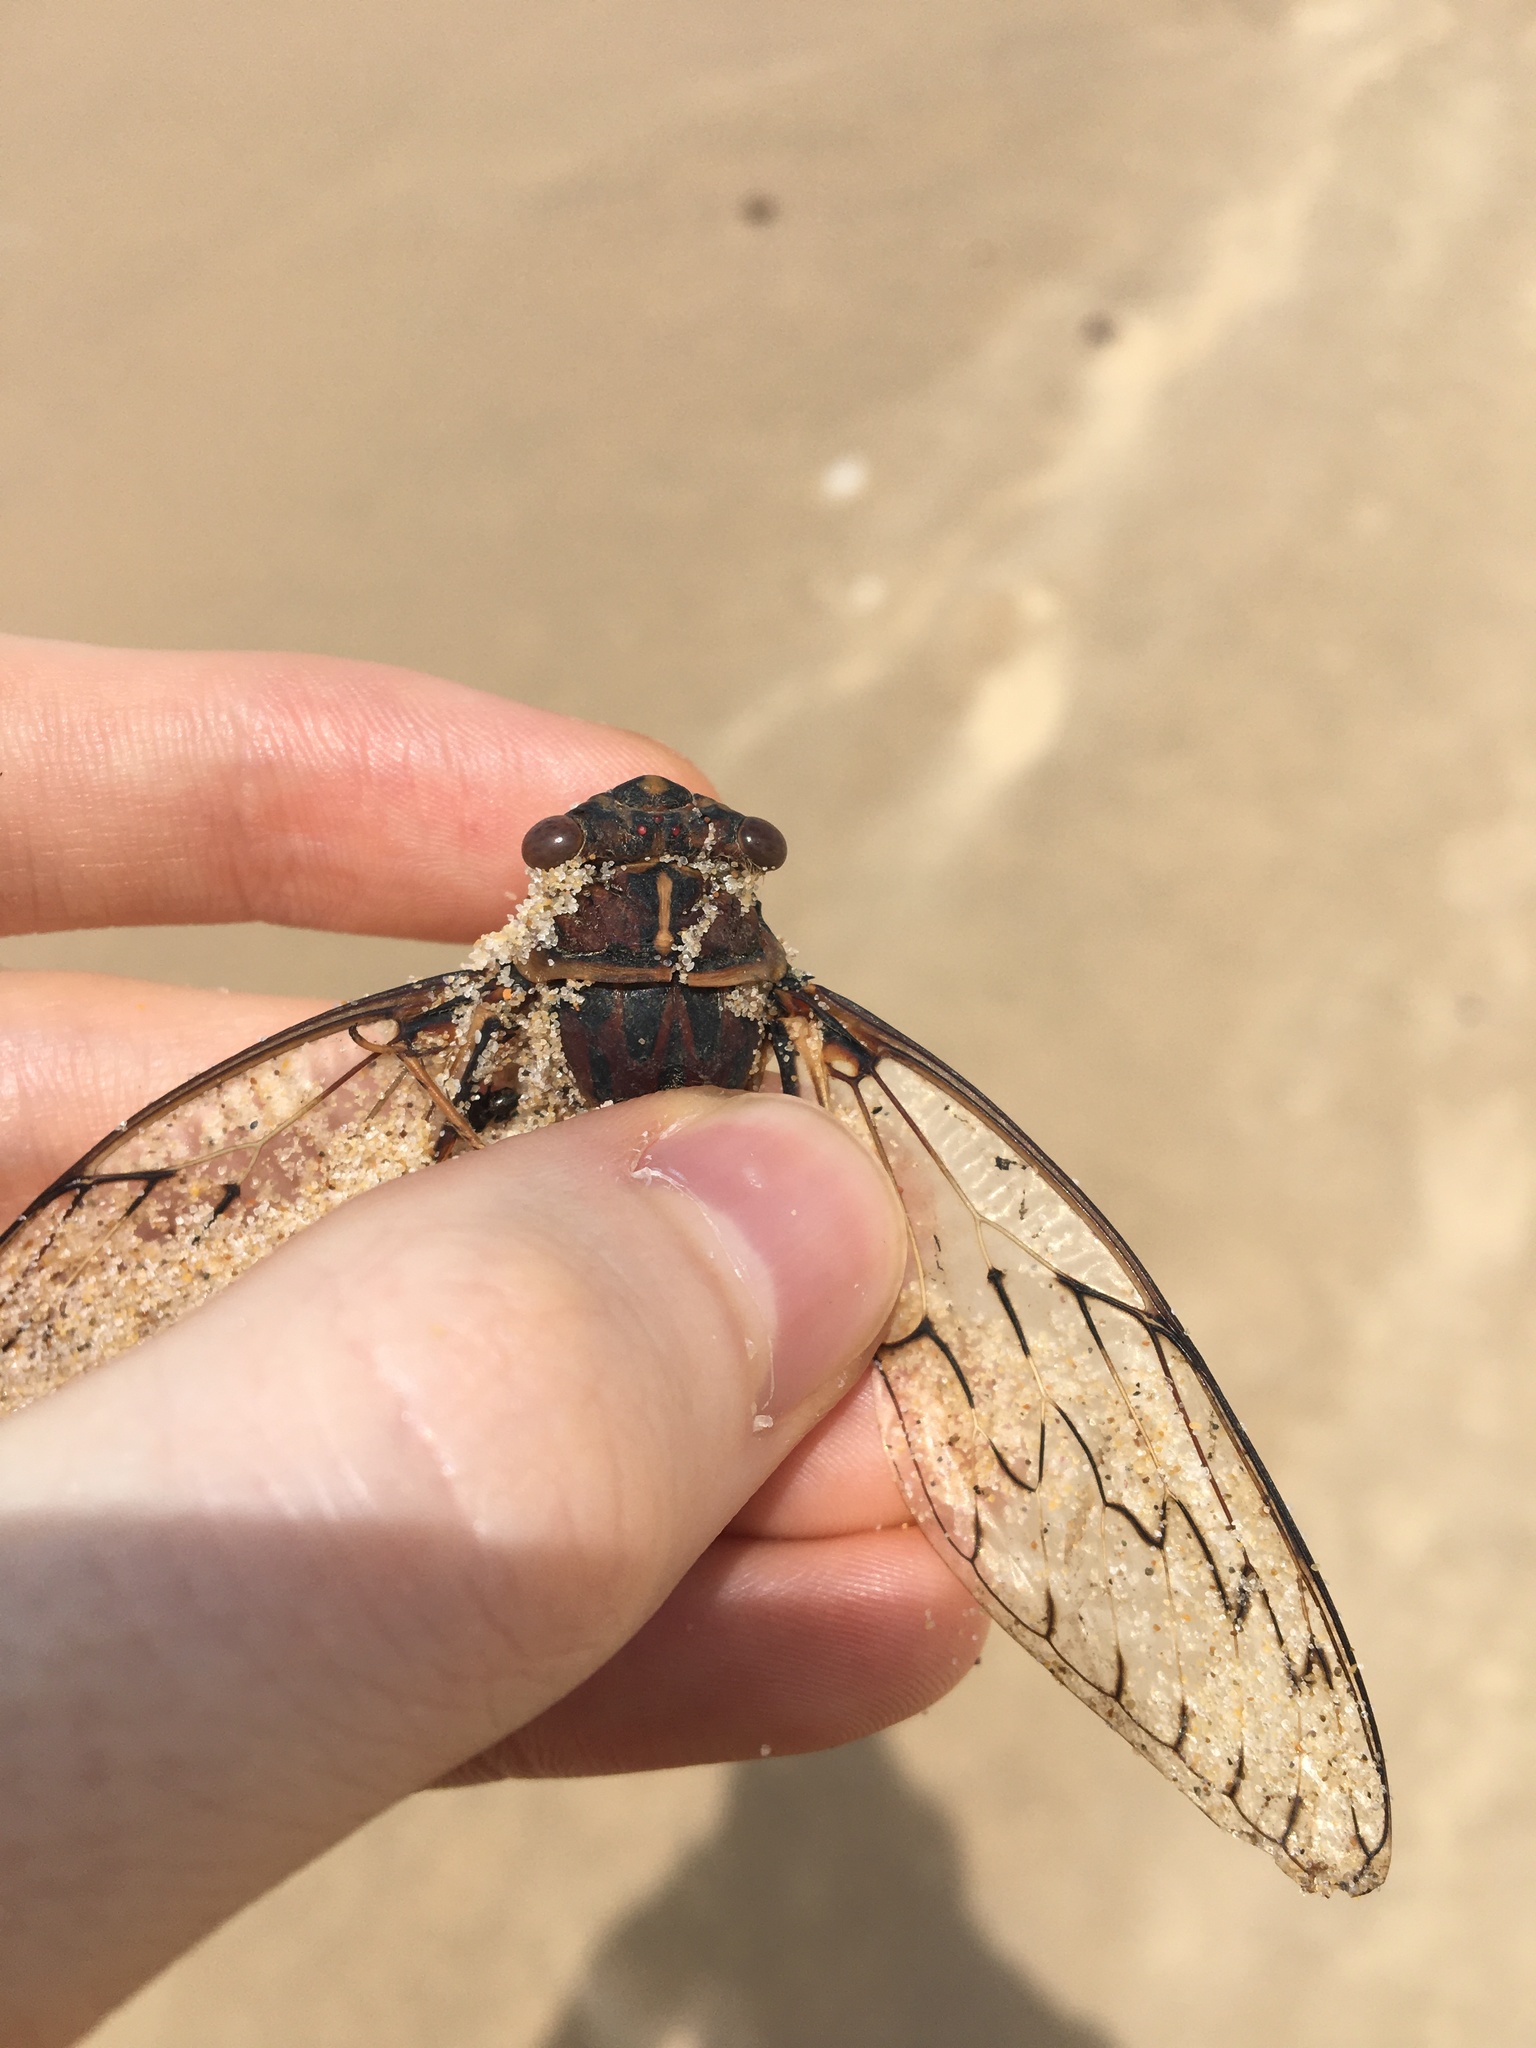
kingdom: Animalia
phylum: Arthropoda
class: Insecta
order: Hemiptera
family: Cicadidae
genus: Henicopsaltria
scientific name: Henicopsaltria eydouxii
